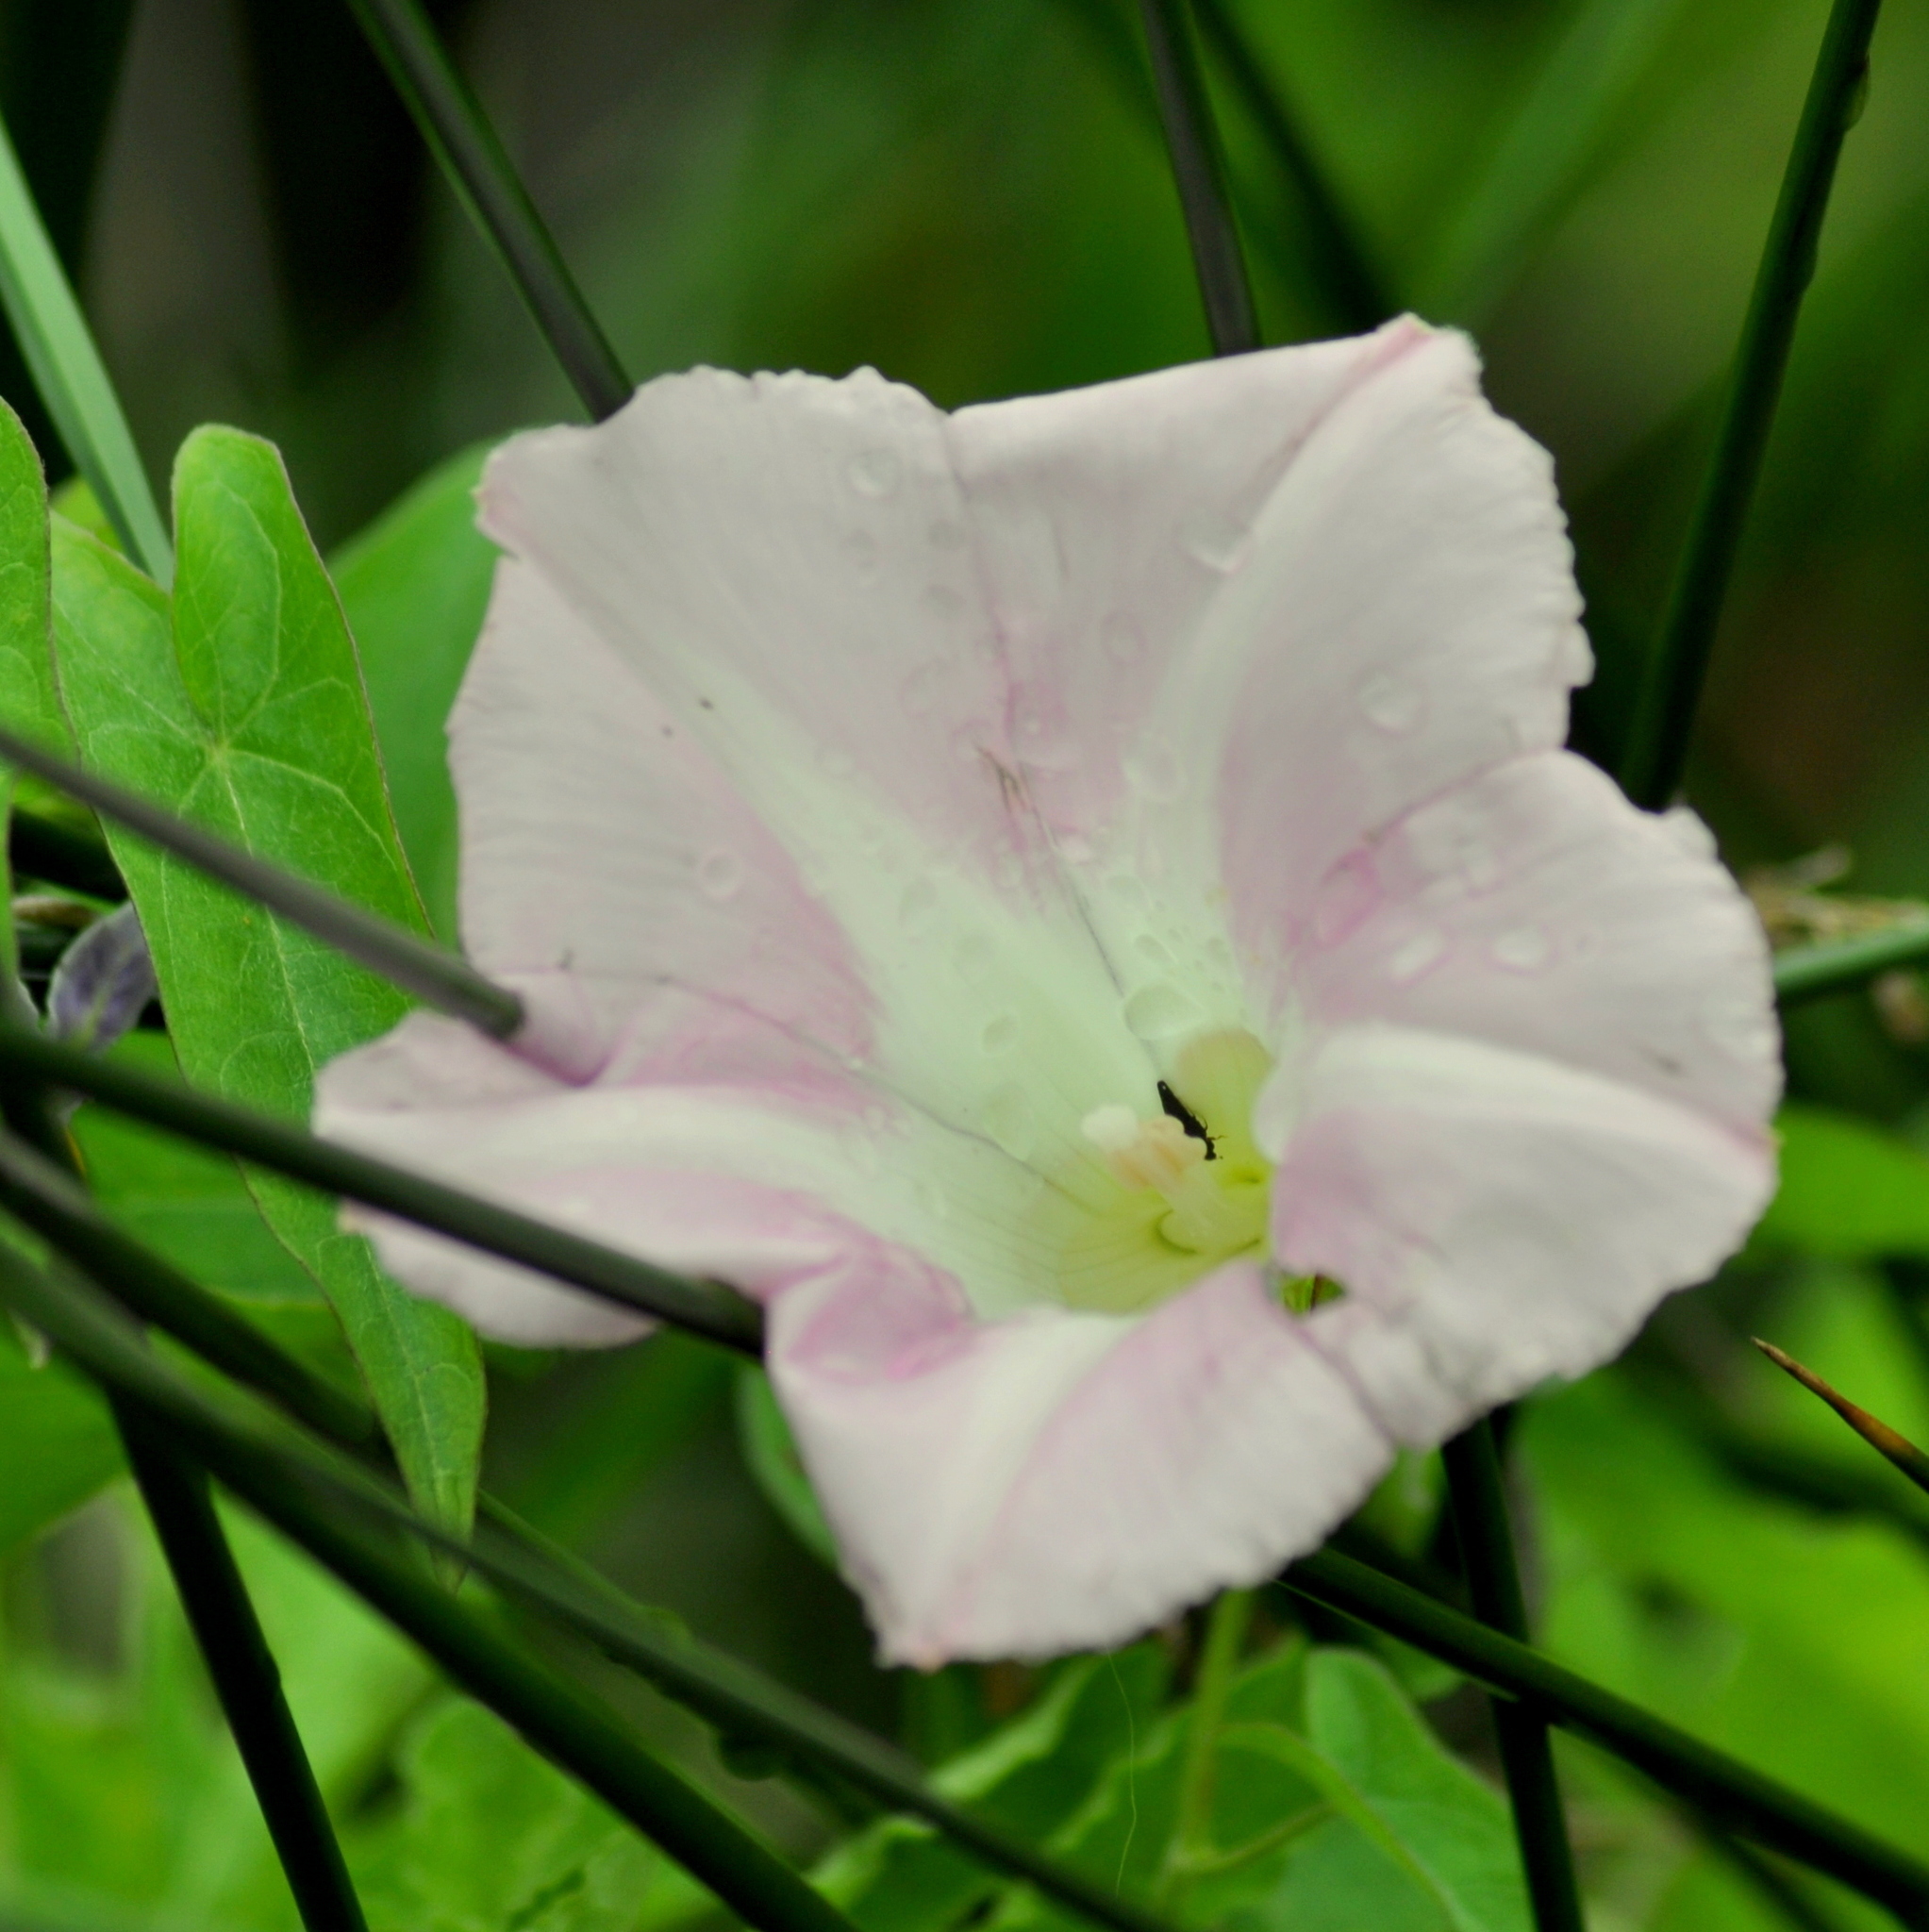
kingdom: Plantae
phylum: Tracheophyta
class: Magnoliopsida
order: Solanales
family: Convolvulaceae
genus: Calystegia
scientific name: Calystegia sepium
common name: Hedge bindweed
